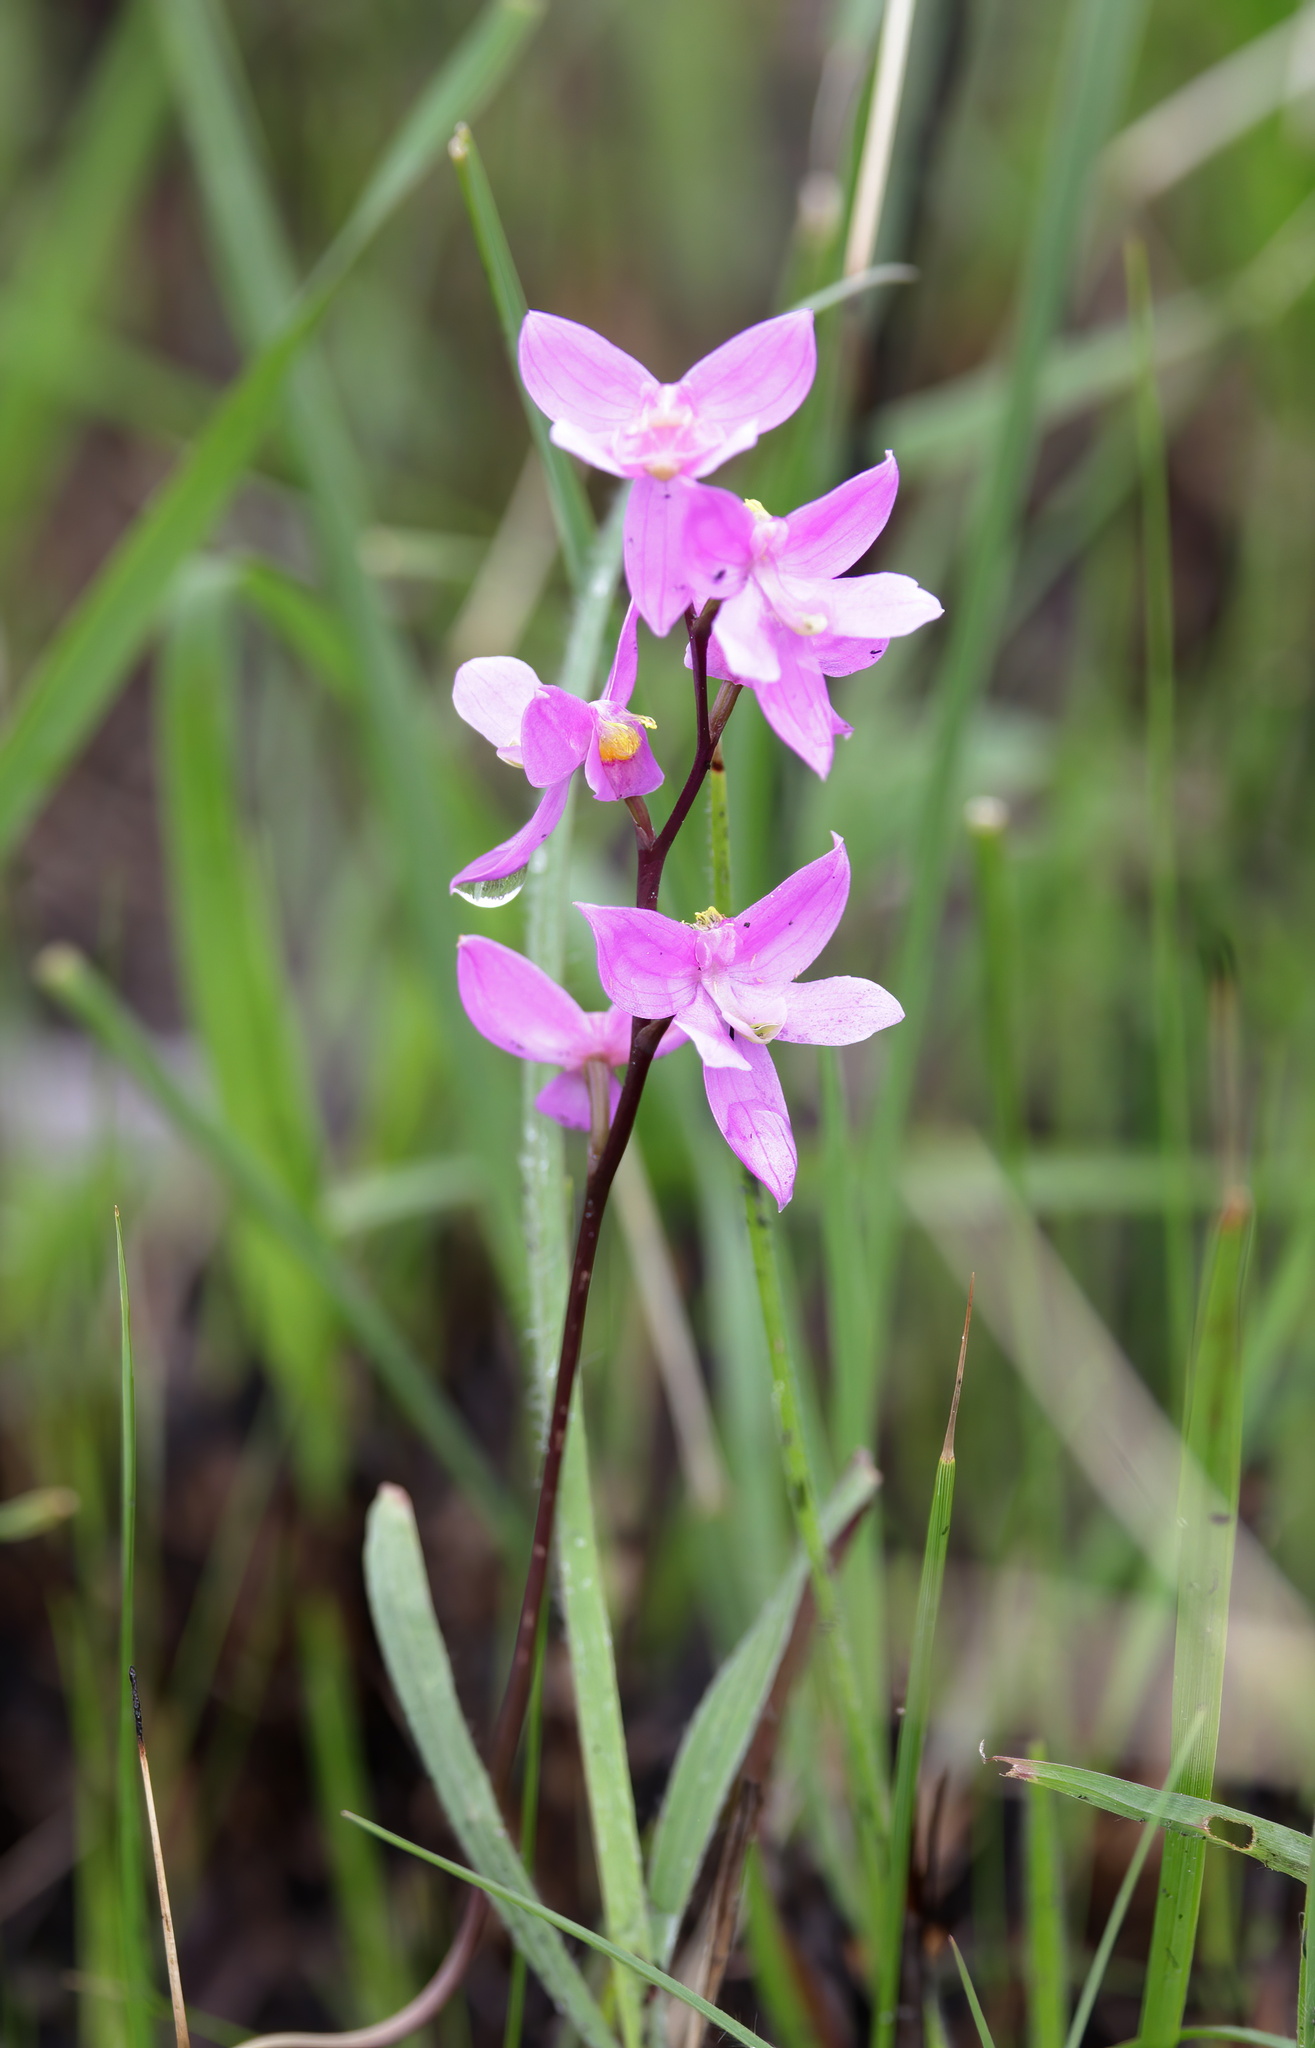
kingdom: Plantae
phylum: Tracheophyta
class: Liliopsida
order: Asparagales
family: Orchidaceae
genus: Calopogon
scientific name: Calopogon multiflorus
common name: Many-flowered grass-pink orchid
